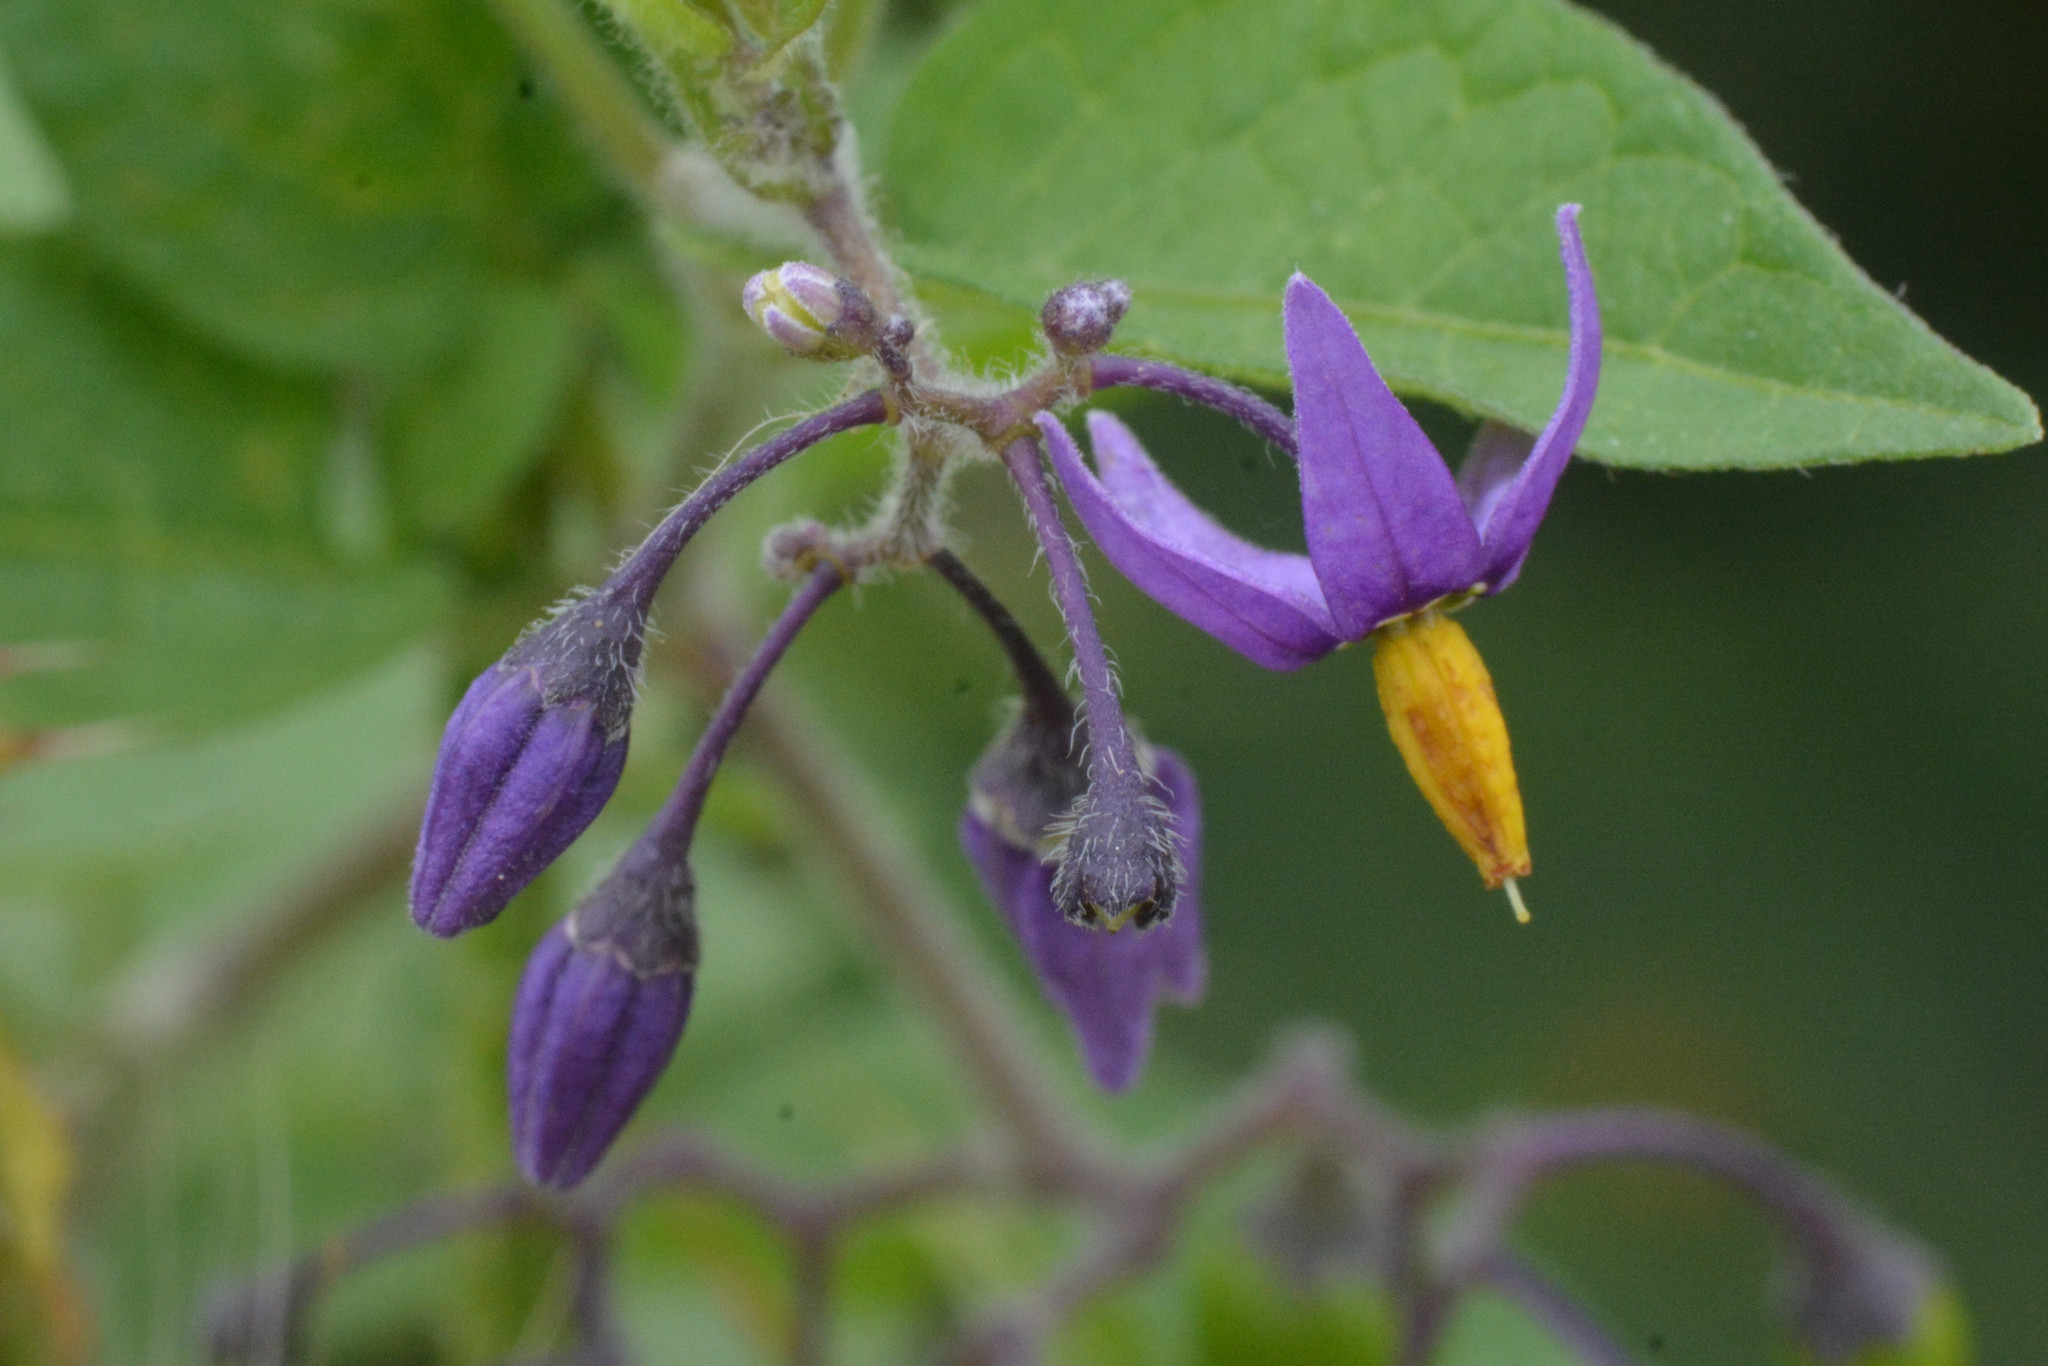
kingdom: Plantae
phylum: Tracheophyta
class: Magnoliopsida
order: Solanales
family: Solanaceae
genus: Solanum
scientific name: Solanum dulcamara
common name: Climbing nightshade
